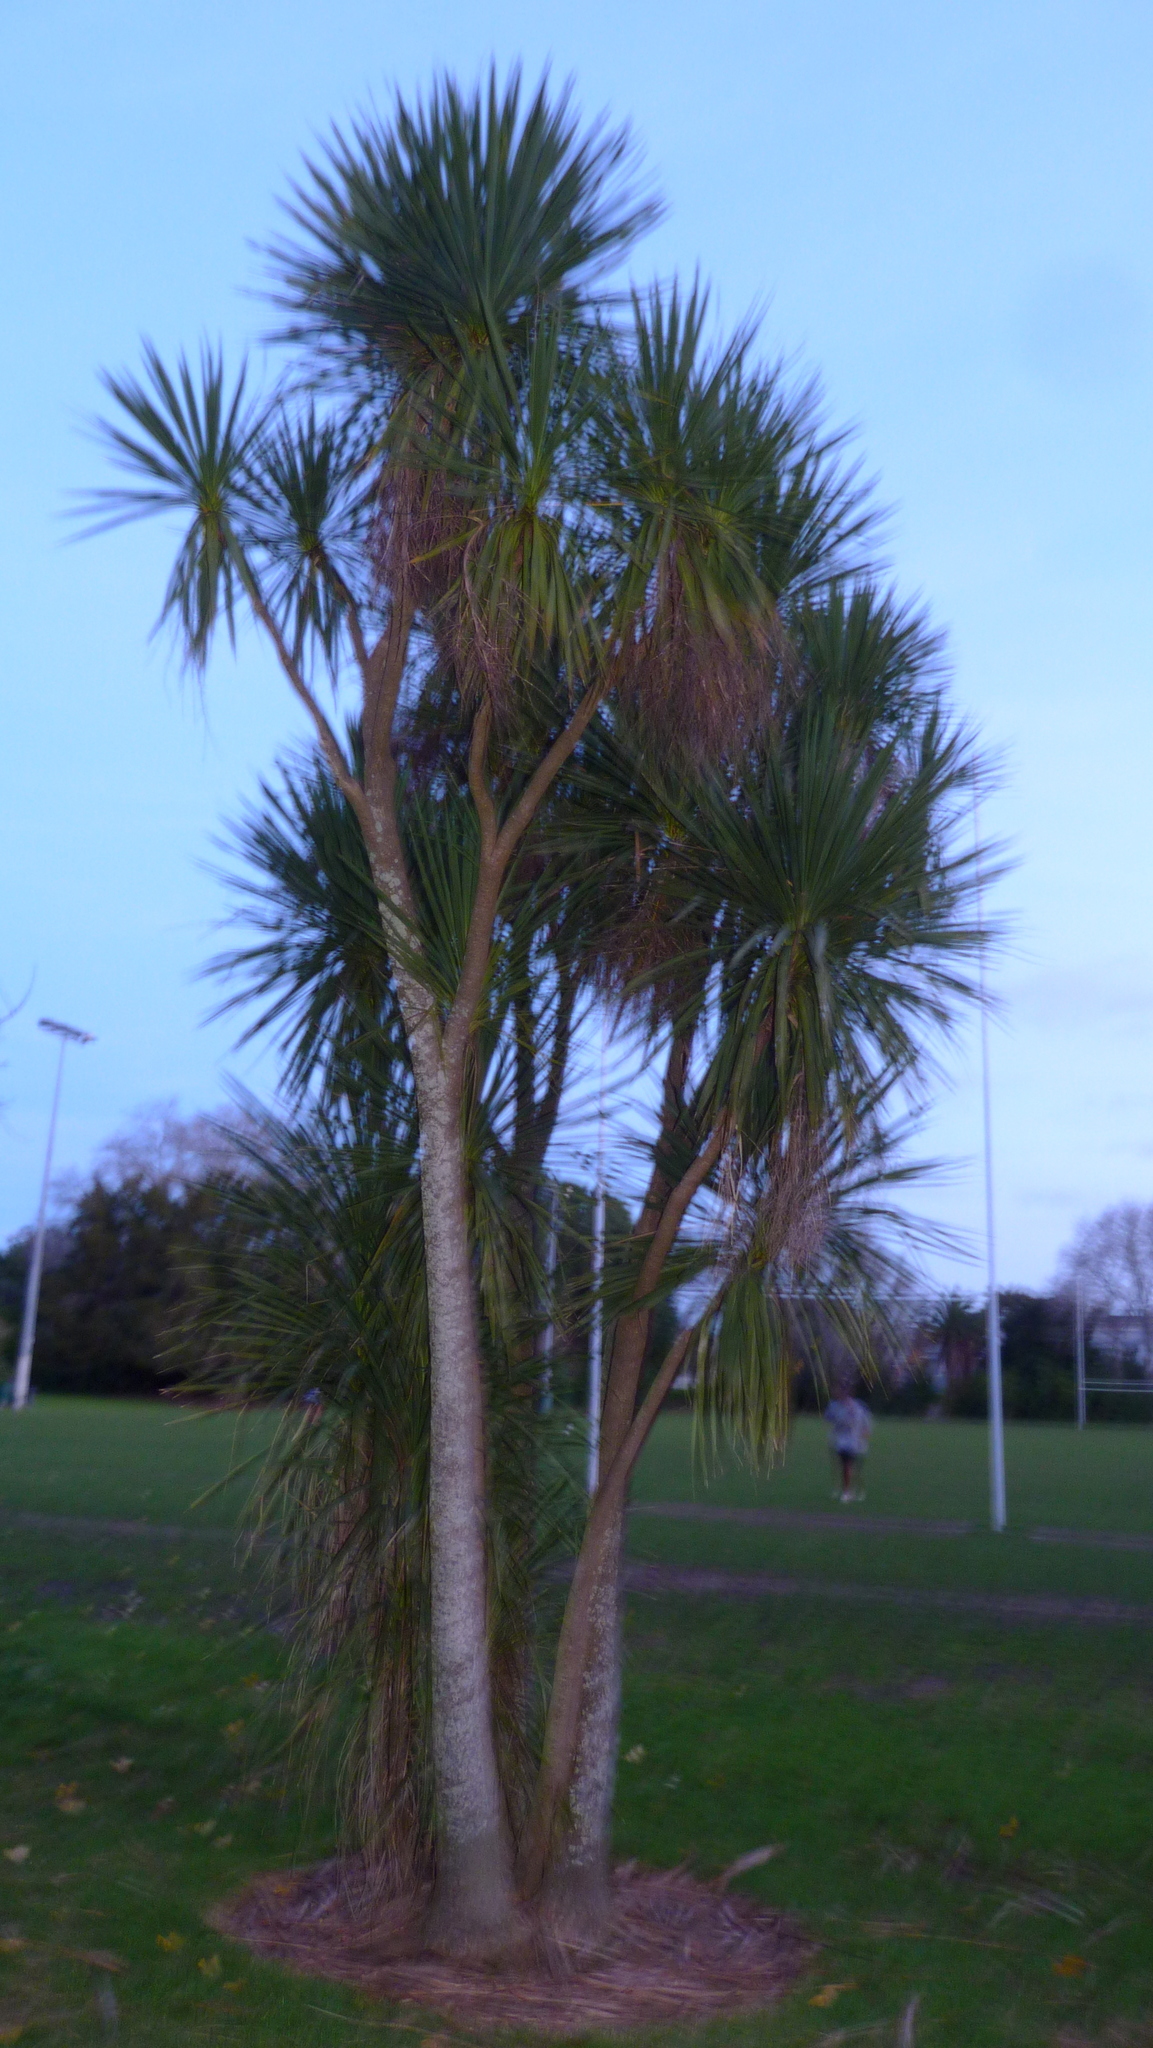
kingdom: Plantae
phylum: Tracheophyta
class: Liliopsida
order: Asparagales
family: Asparagaceae
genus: Cordyline
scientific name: Cordyline australis
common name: Cabbage-palm
